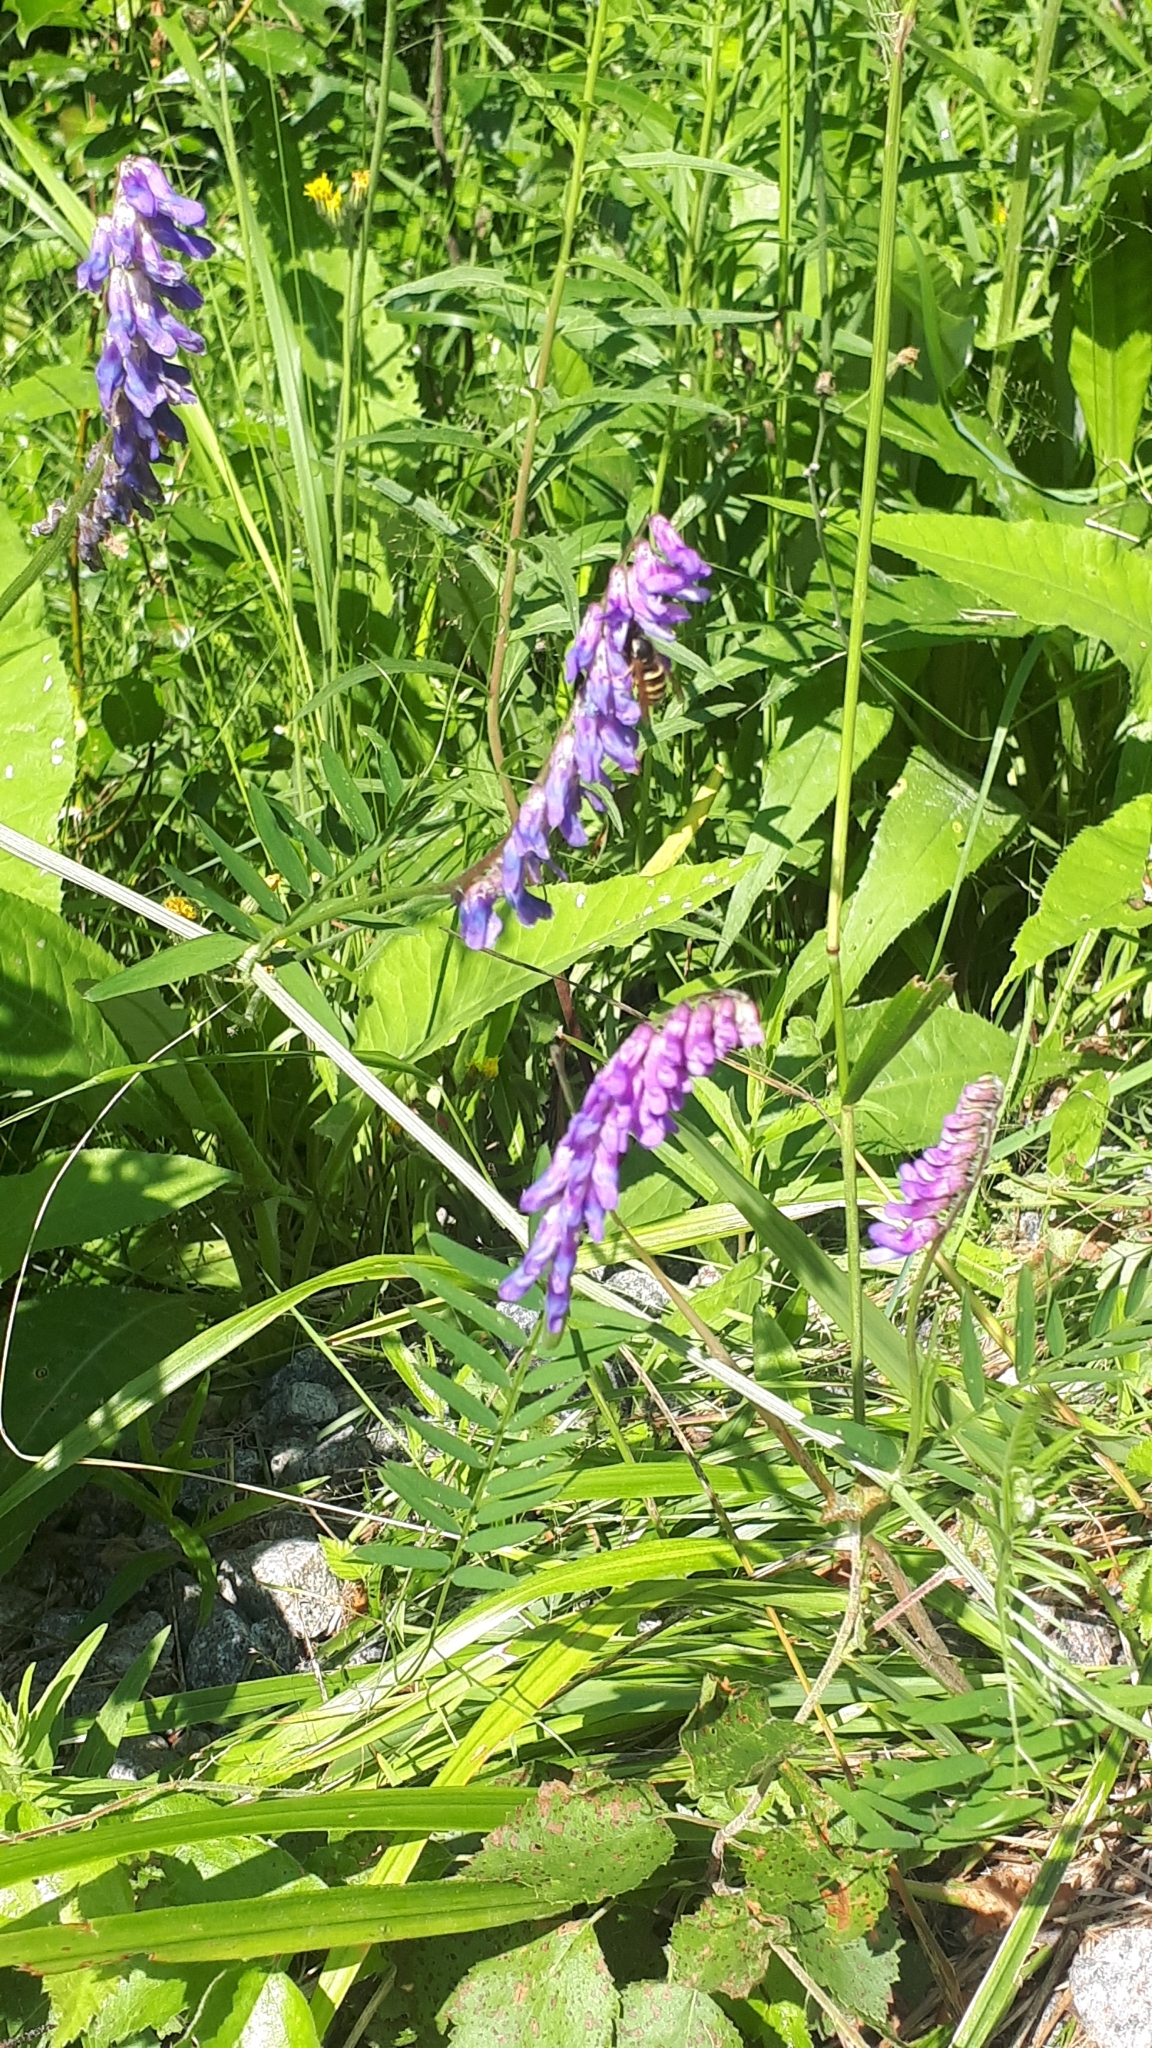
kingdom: Plantae
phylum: Tracheophyta
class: Magnoliopsida
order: Fabales
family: Fabaceae
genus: Vicia
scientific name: Vicia cracca
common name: Bird vetch
